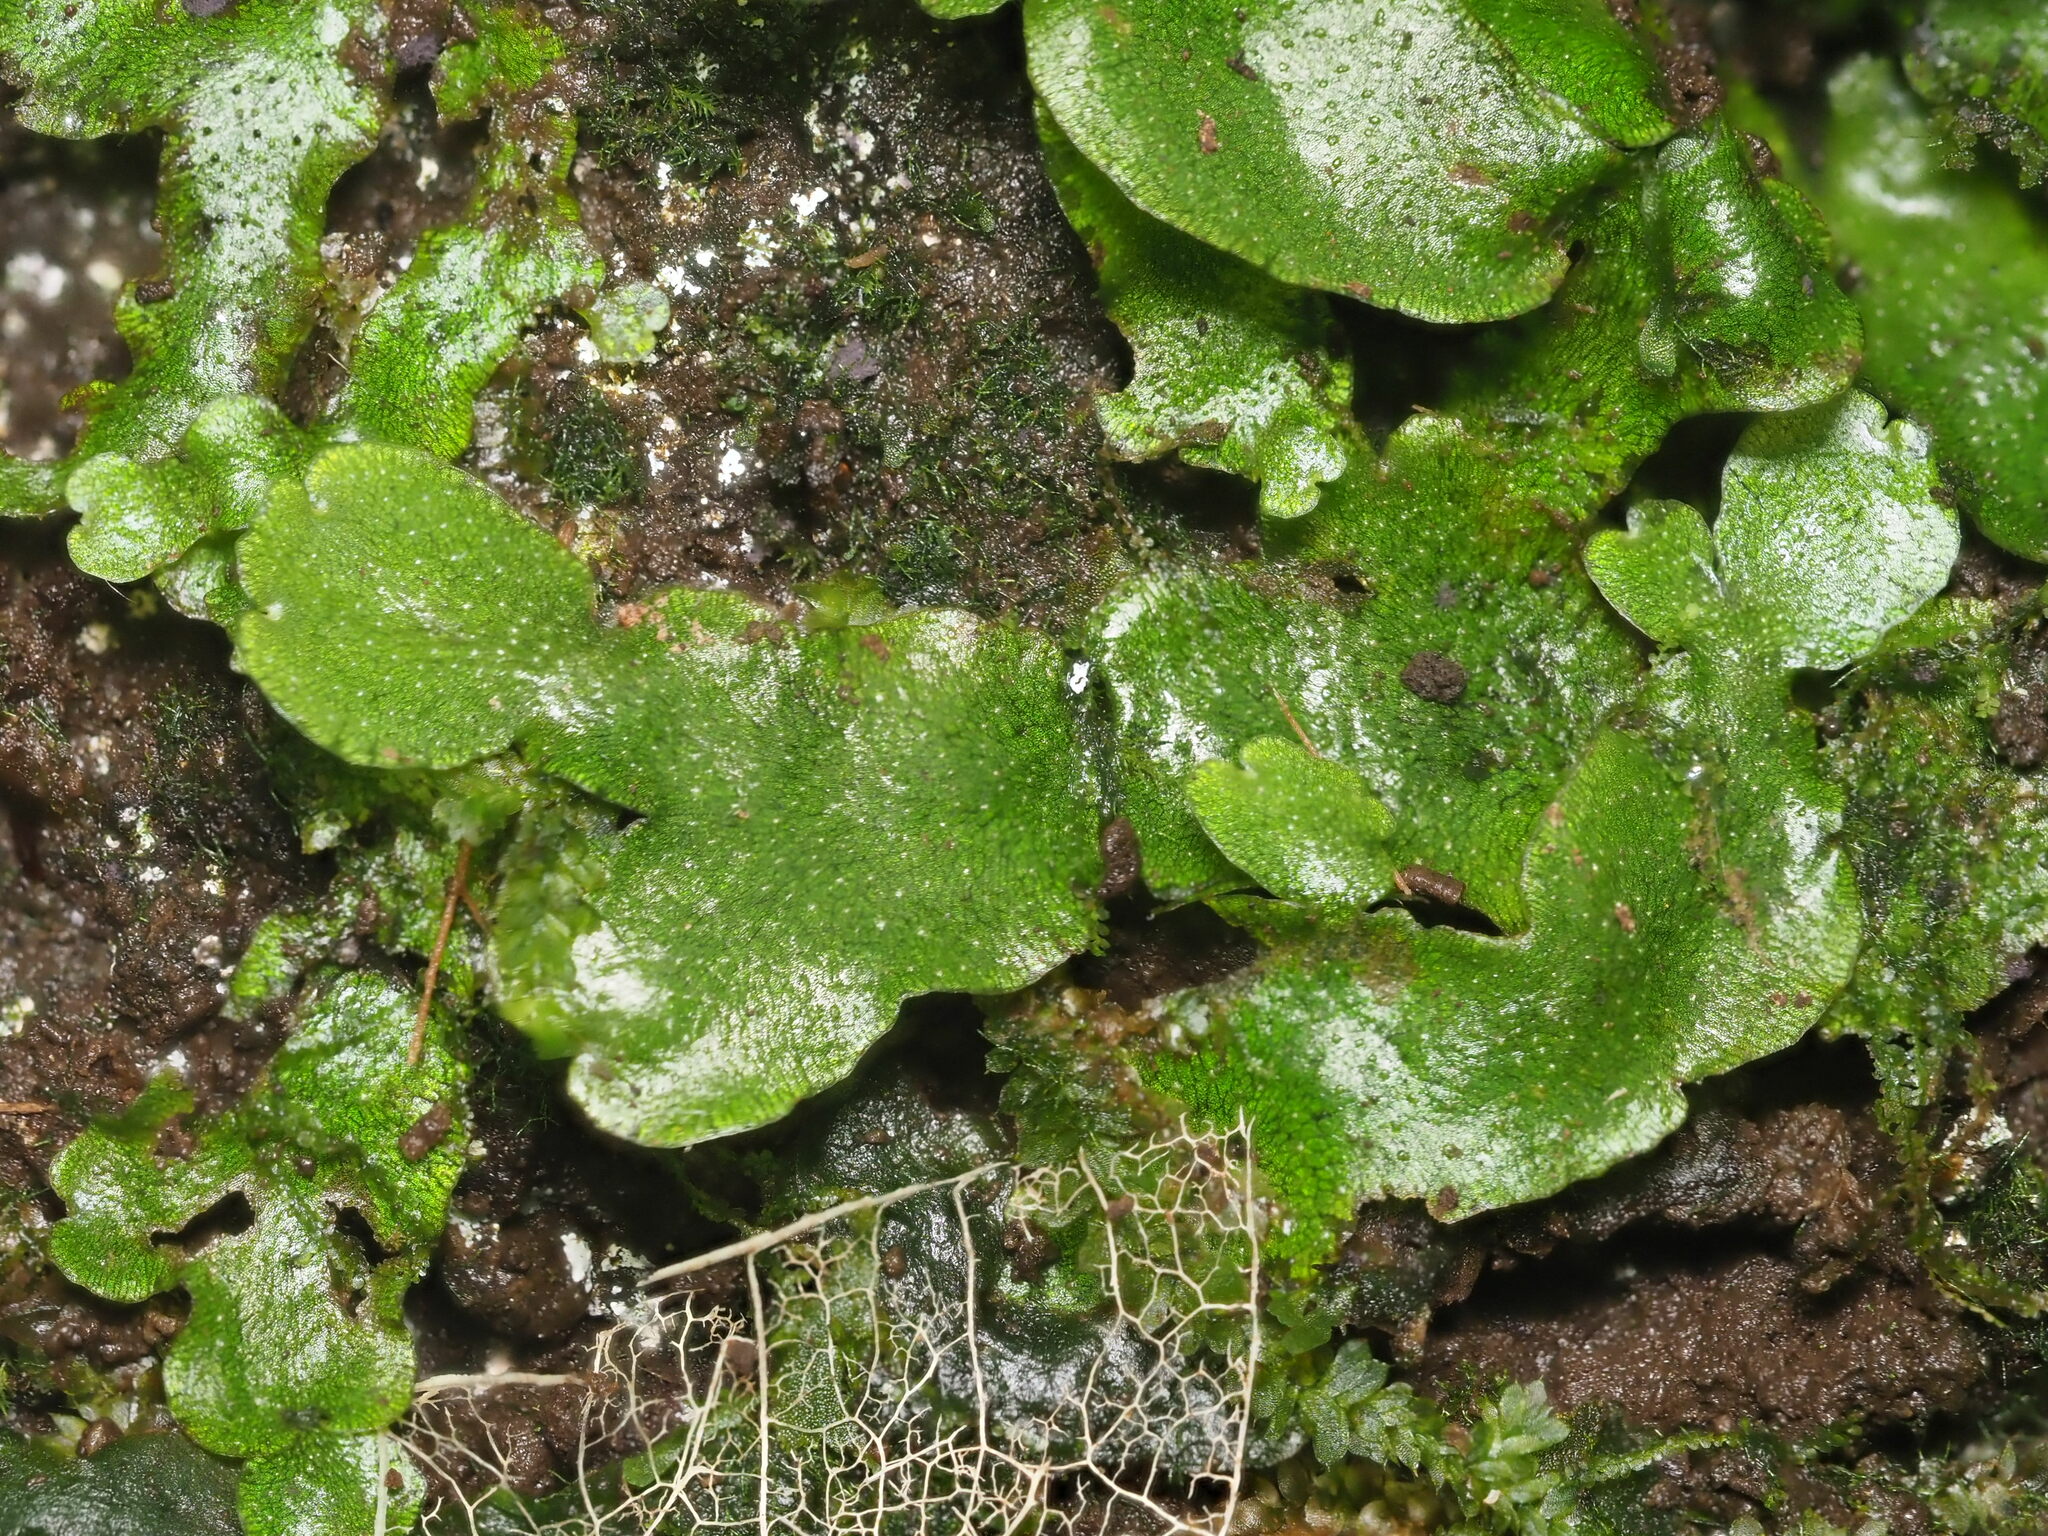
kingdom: Plantae
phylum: Marchantiophyta
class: Marchantiopsida
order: Marchantiales
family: Wiesnerellaceae
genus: Wiesnerella
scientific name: Wiesnerella denudata
